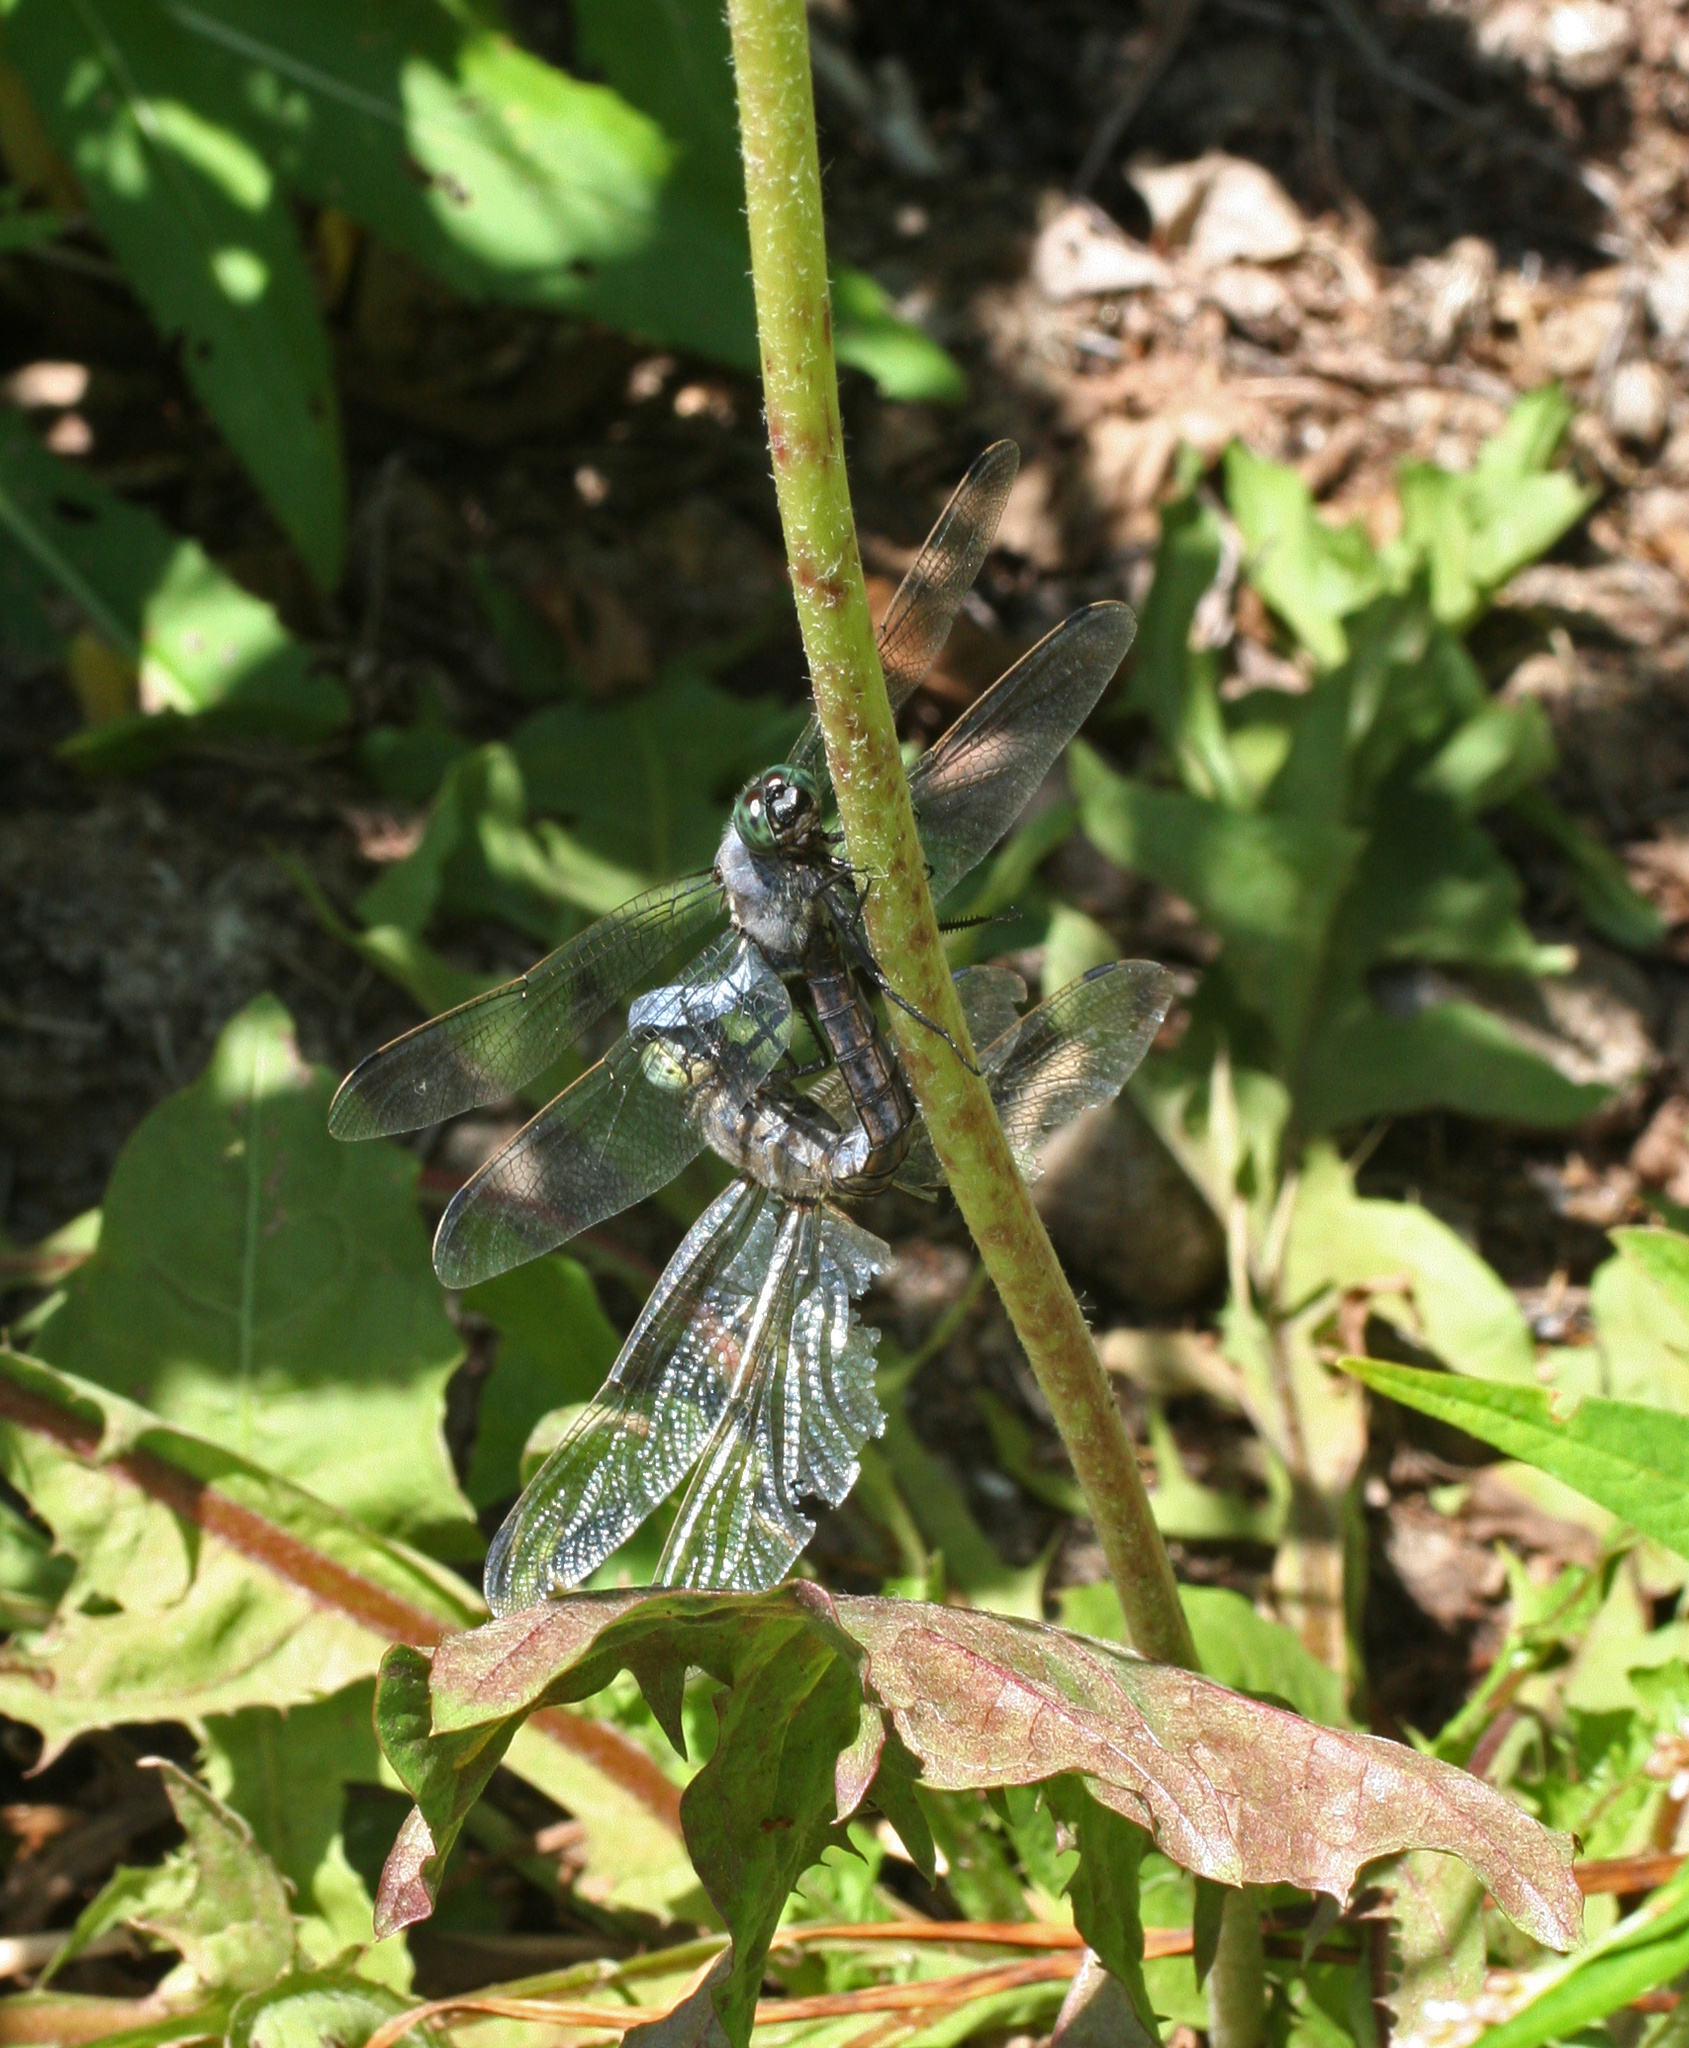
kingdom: Animalia
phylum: Arthropoda
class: Insecta
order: Odonata
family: Libellulidae
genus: Orthetrum
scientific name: Orthetrum cancellatum
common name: Black-tailed skimmer
